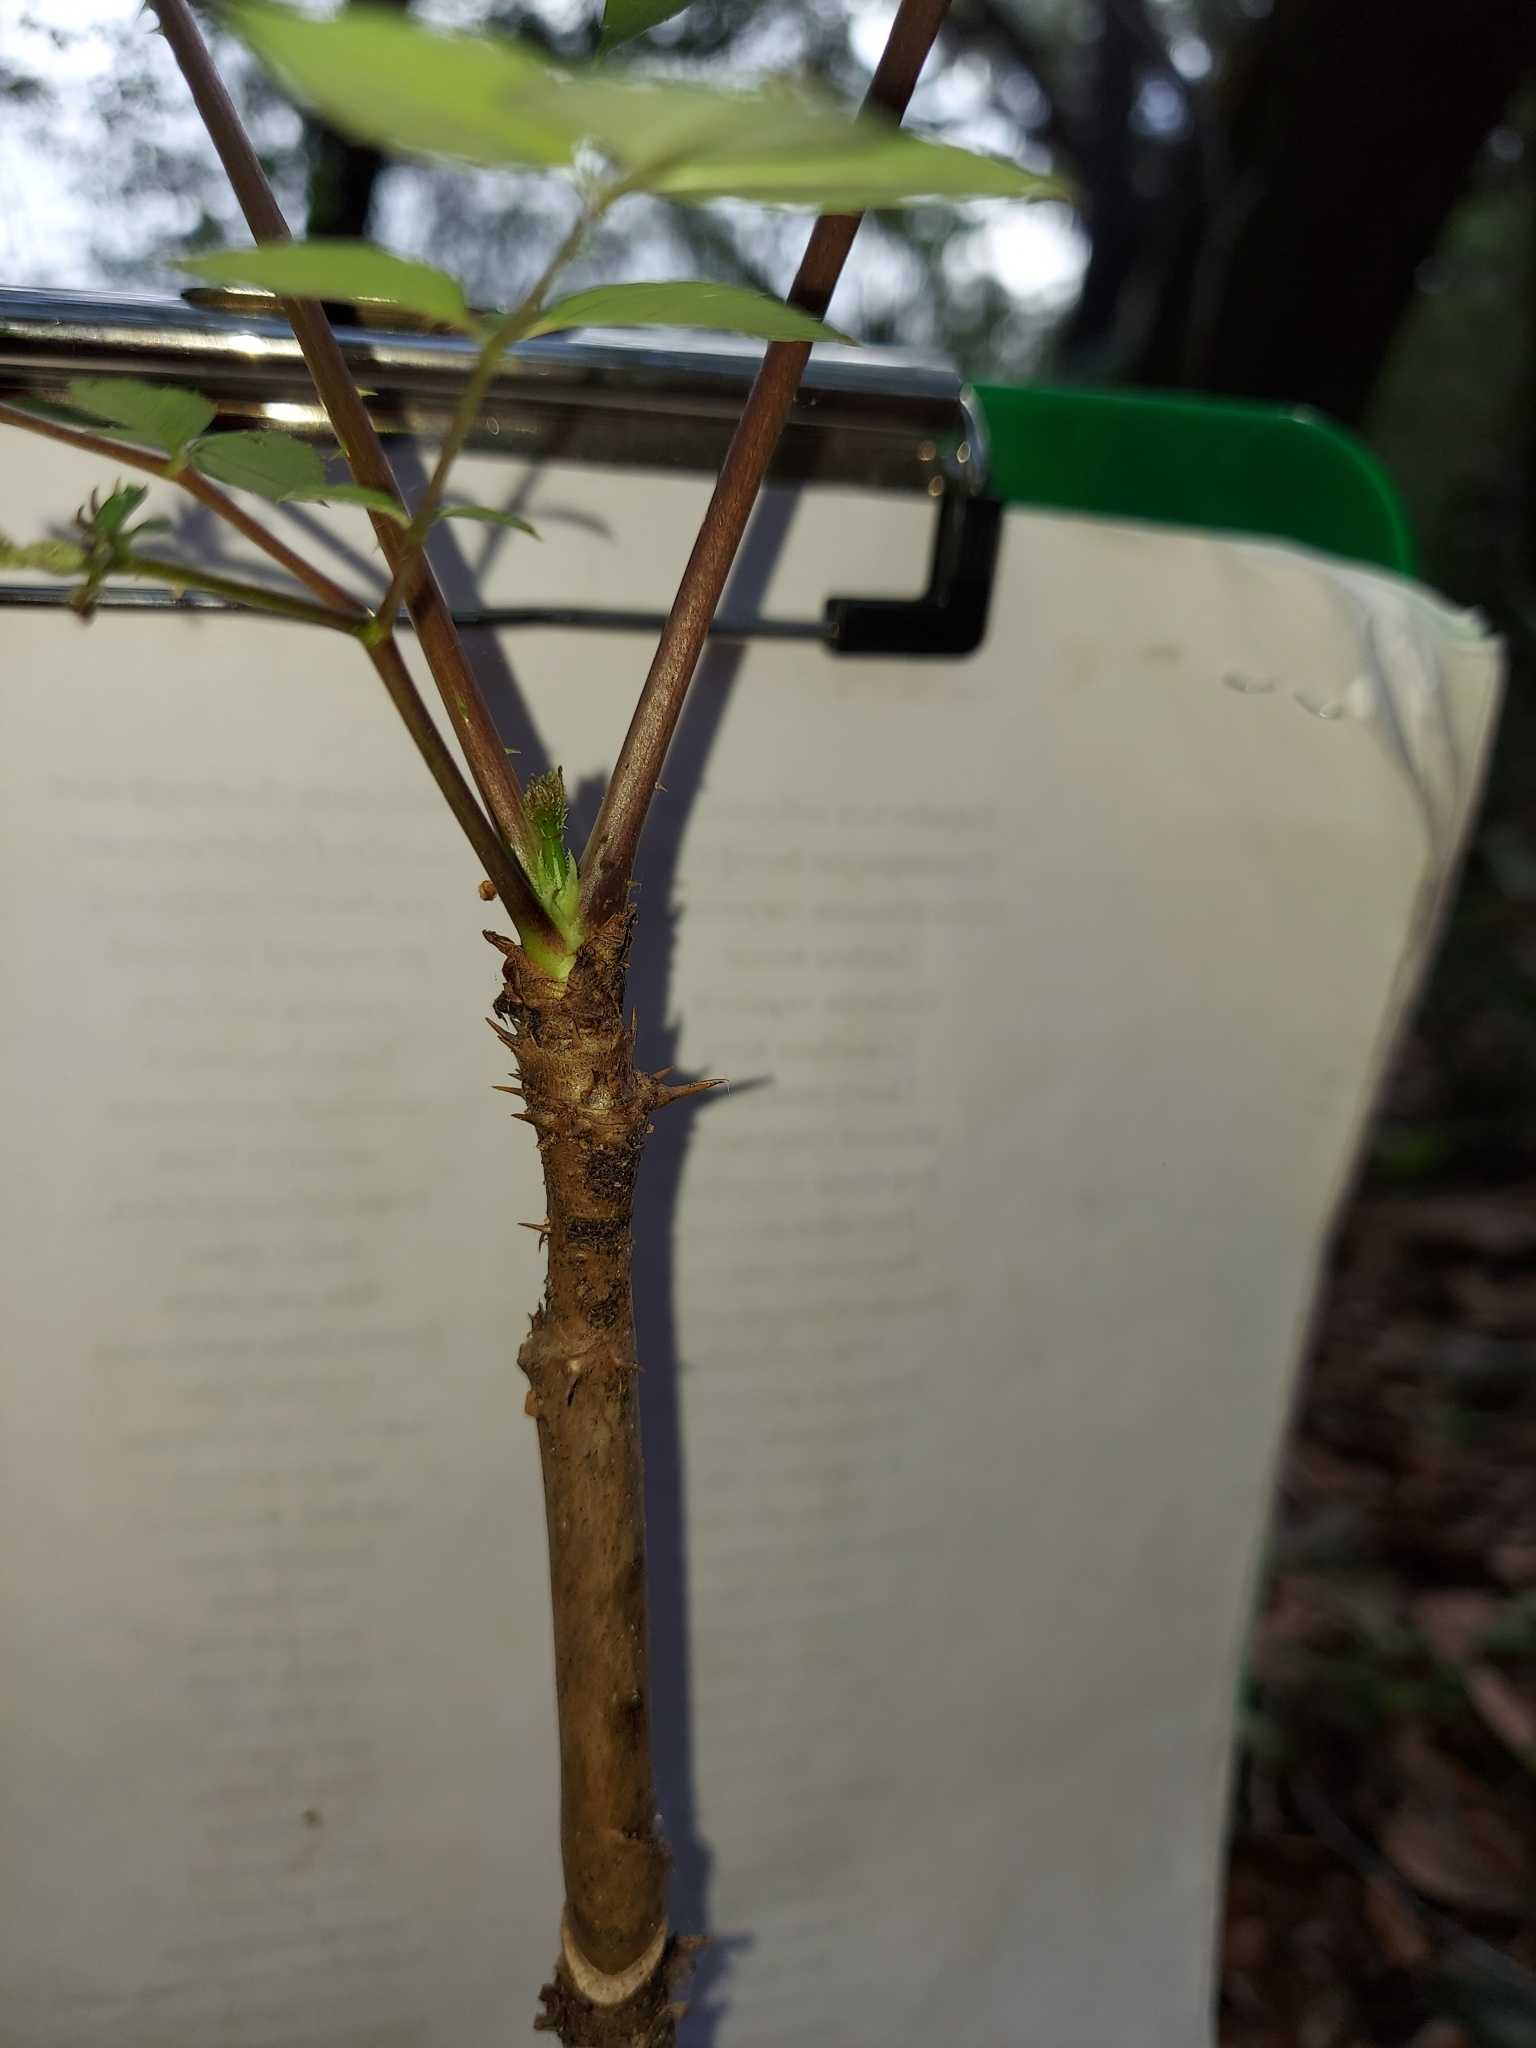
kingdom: Plantae
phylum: Tracheophyta
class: Magnoliopsida
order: Apiales
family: Araliaceae
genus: Aralia
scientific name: Aralia spinosa
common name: Hercules'-club
